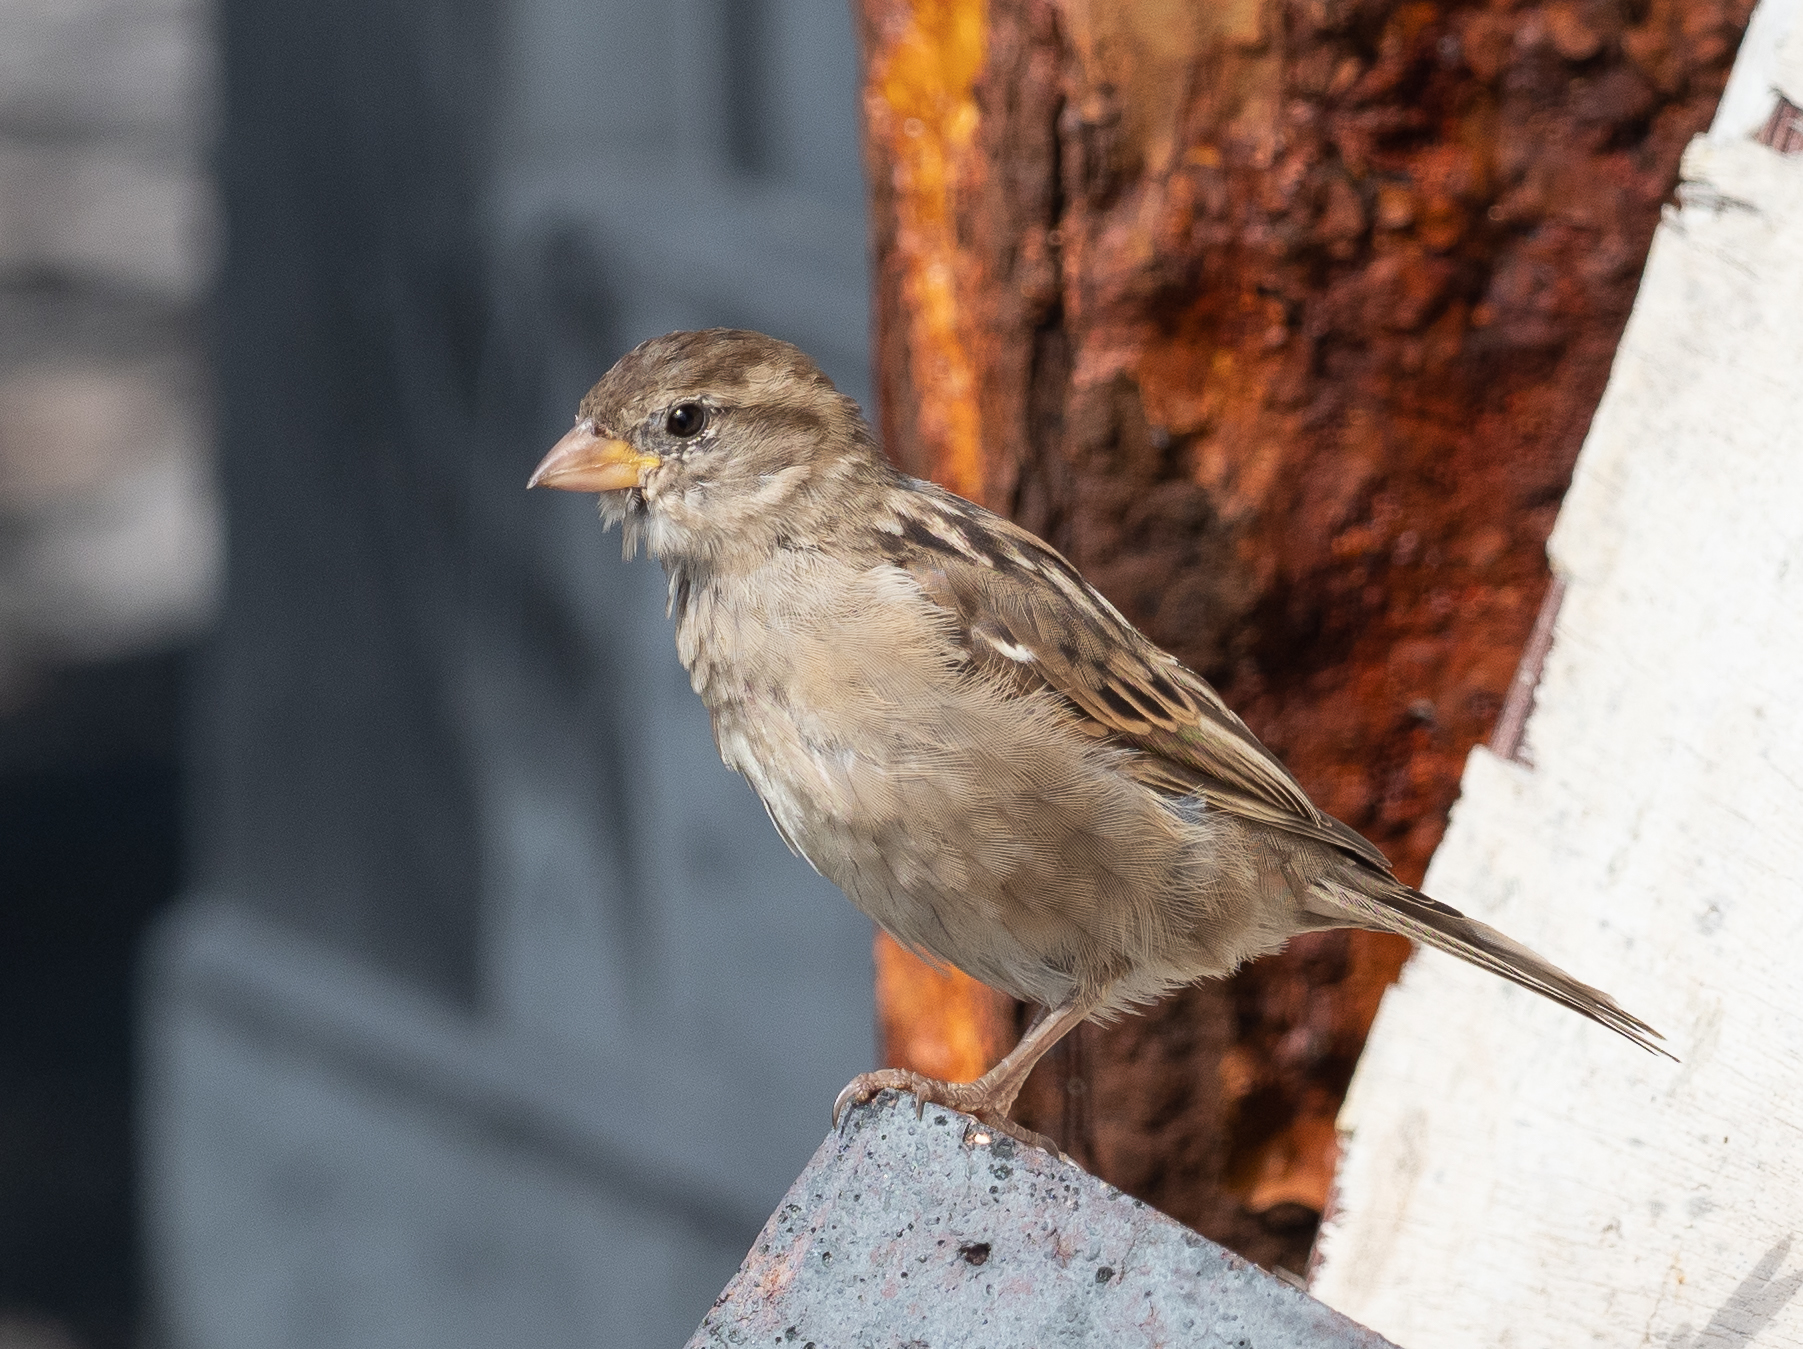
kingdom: Animalia
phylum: Chordata
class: Aves
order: Passeriformes
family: Passeridae
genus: Passer
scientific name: Passer domesticus
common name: House sparrow
